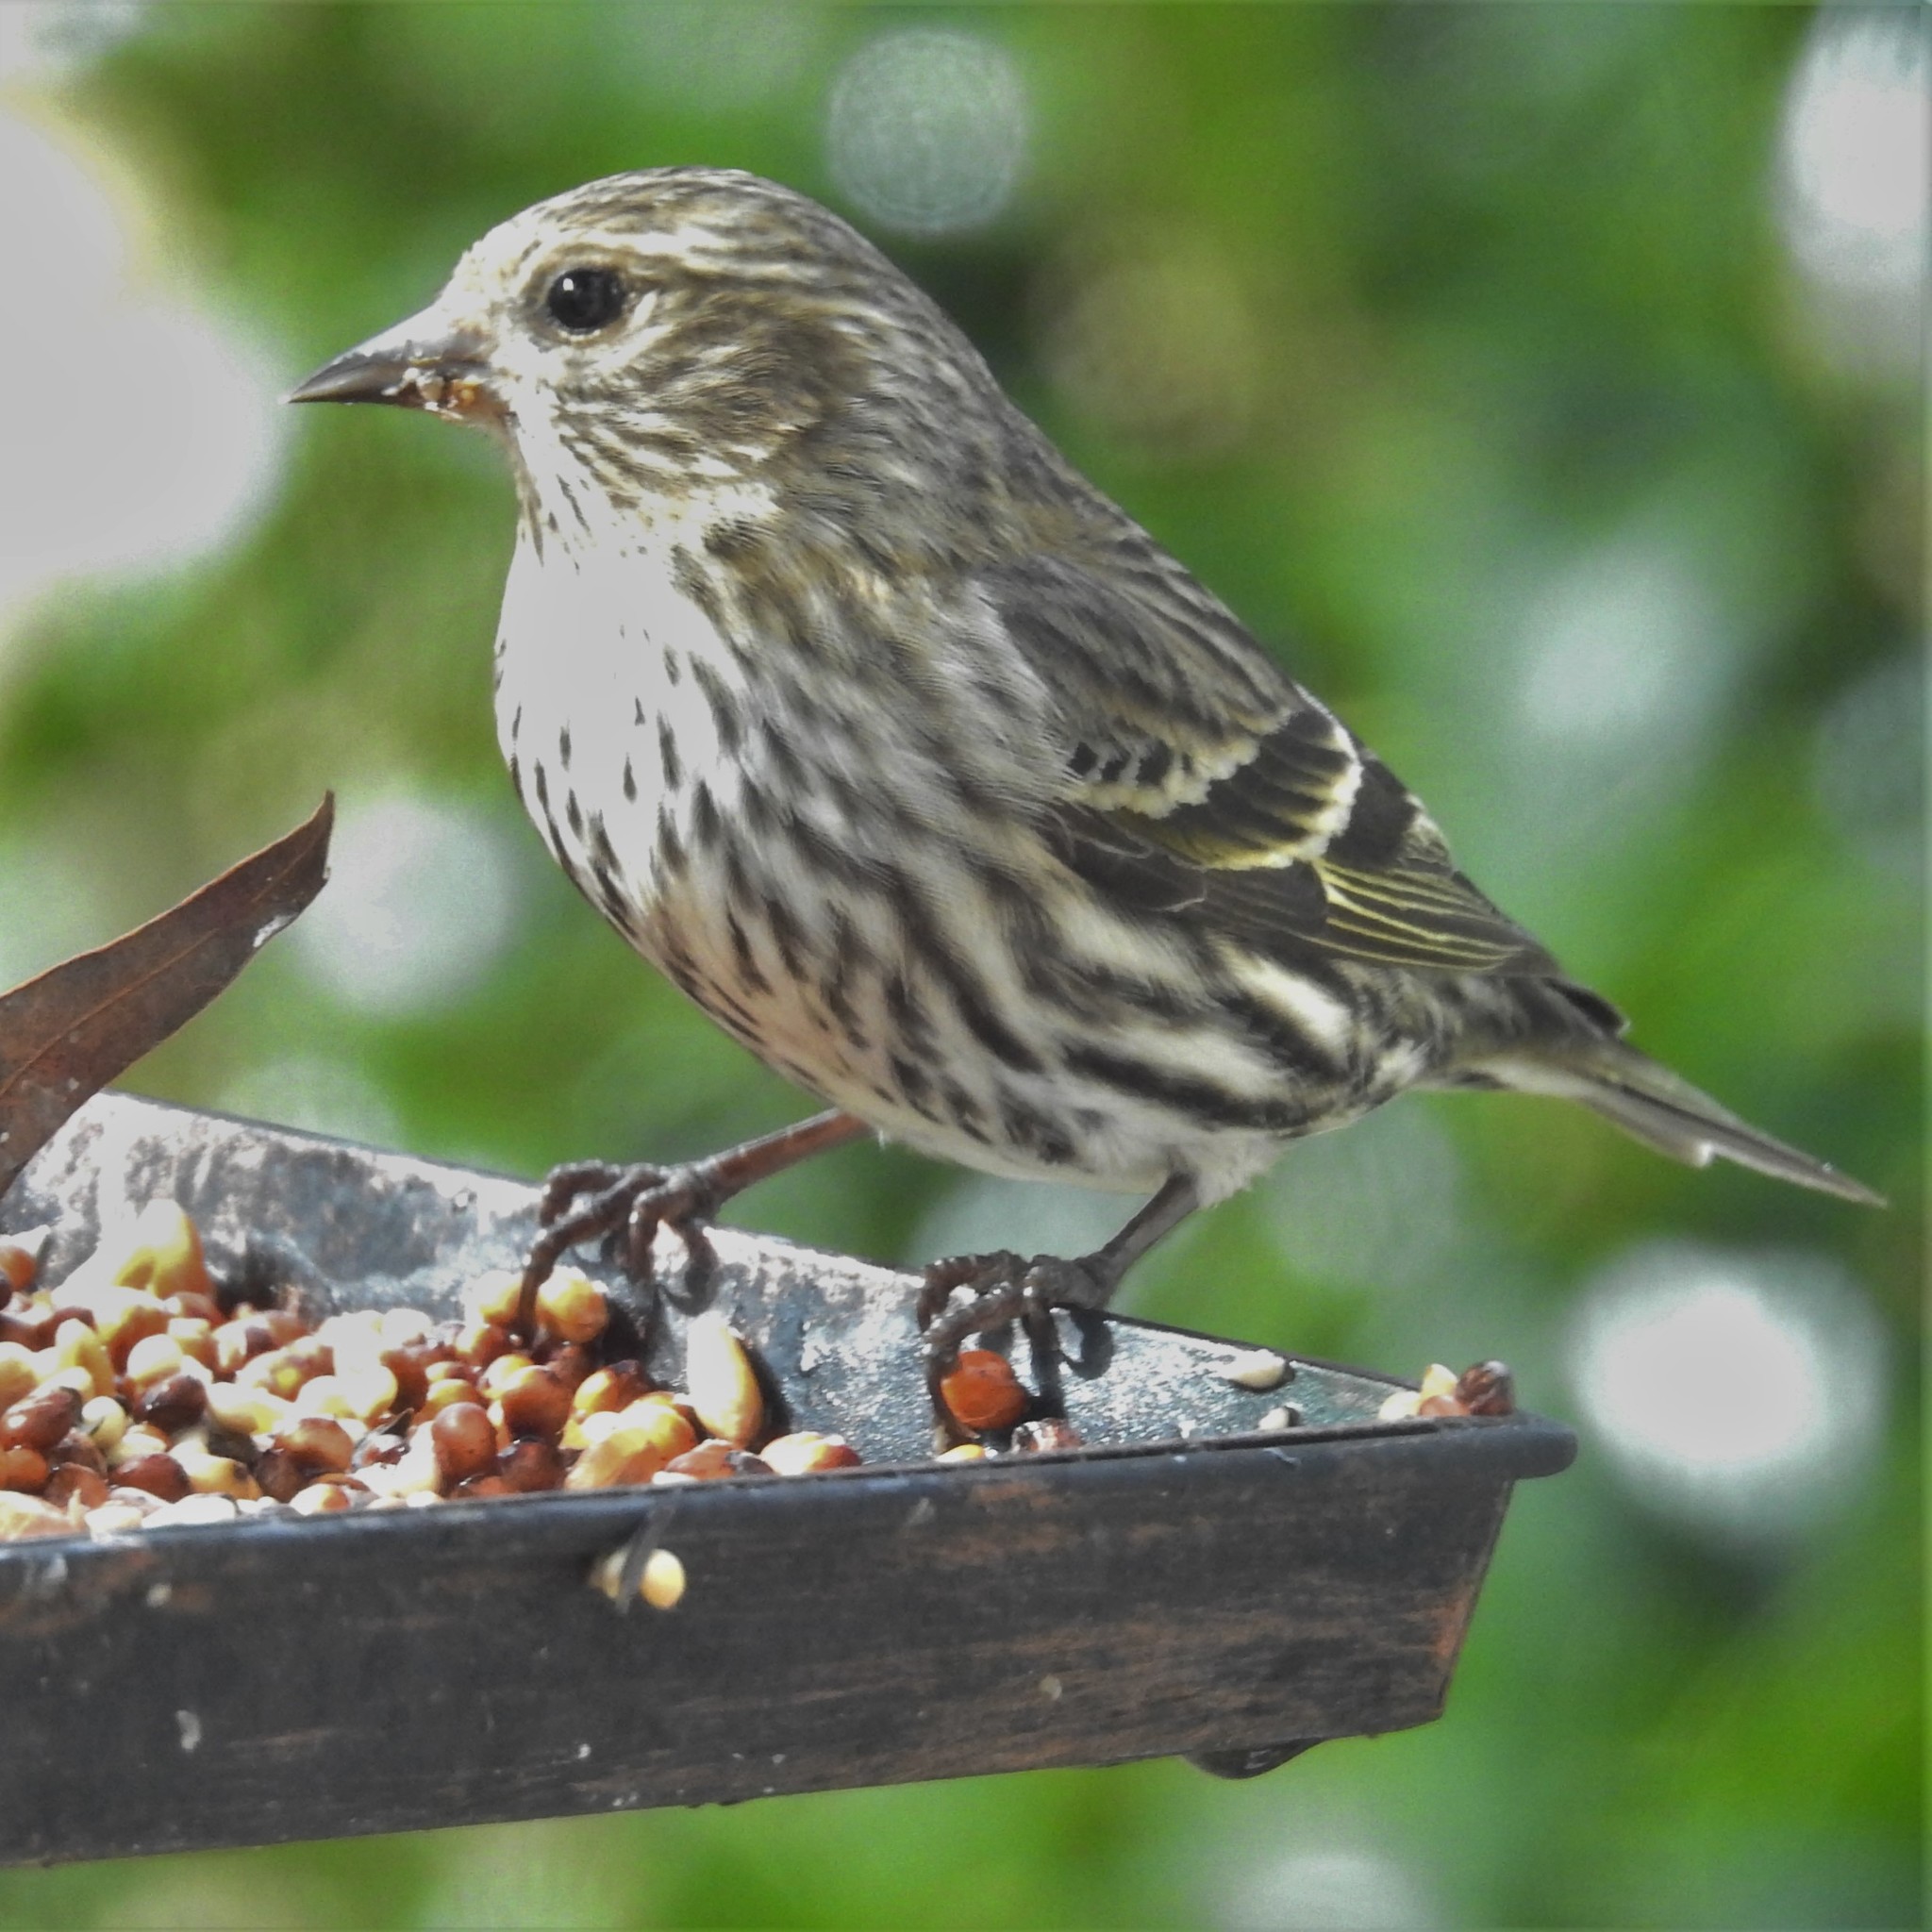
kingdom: Animalia
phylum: Chordata
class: Aves
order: Passeriformes
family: Fringillidae
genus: Spinus
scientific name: Spinus pinus
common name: Pine siskin
